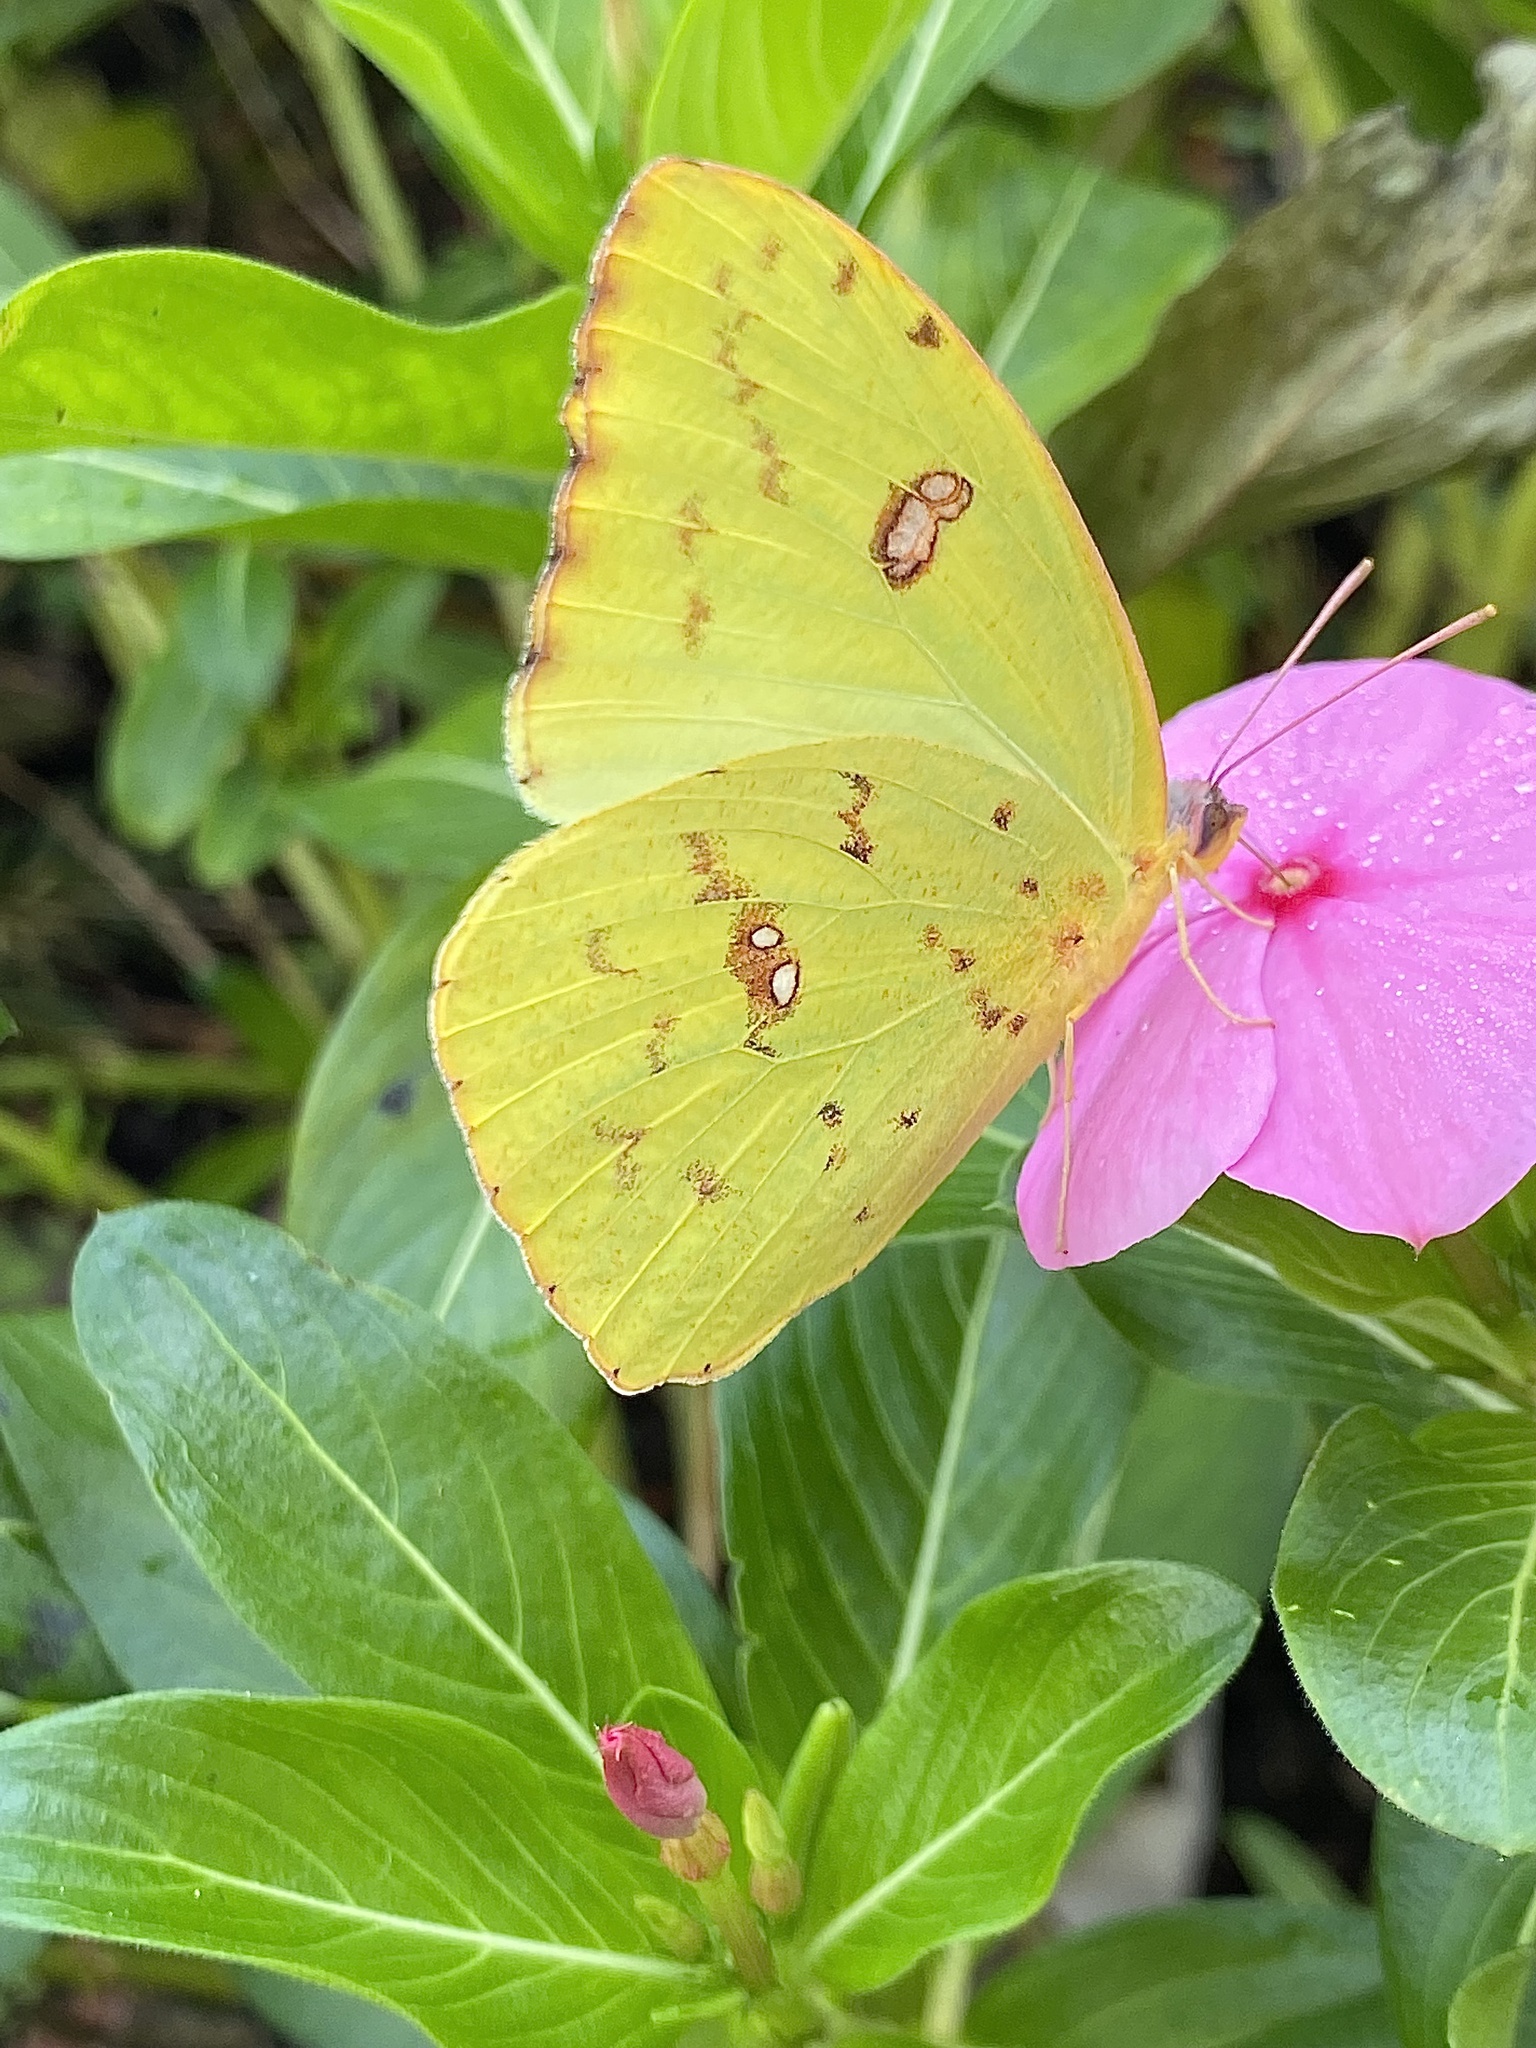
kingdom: Animalia
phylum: Arthropoda
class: Insecta
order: Lepidoptera
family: Pieridae
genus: Phoebis
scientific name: Phoebis sennae
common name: Cloudless sulphur
